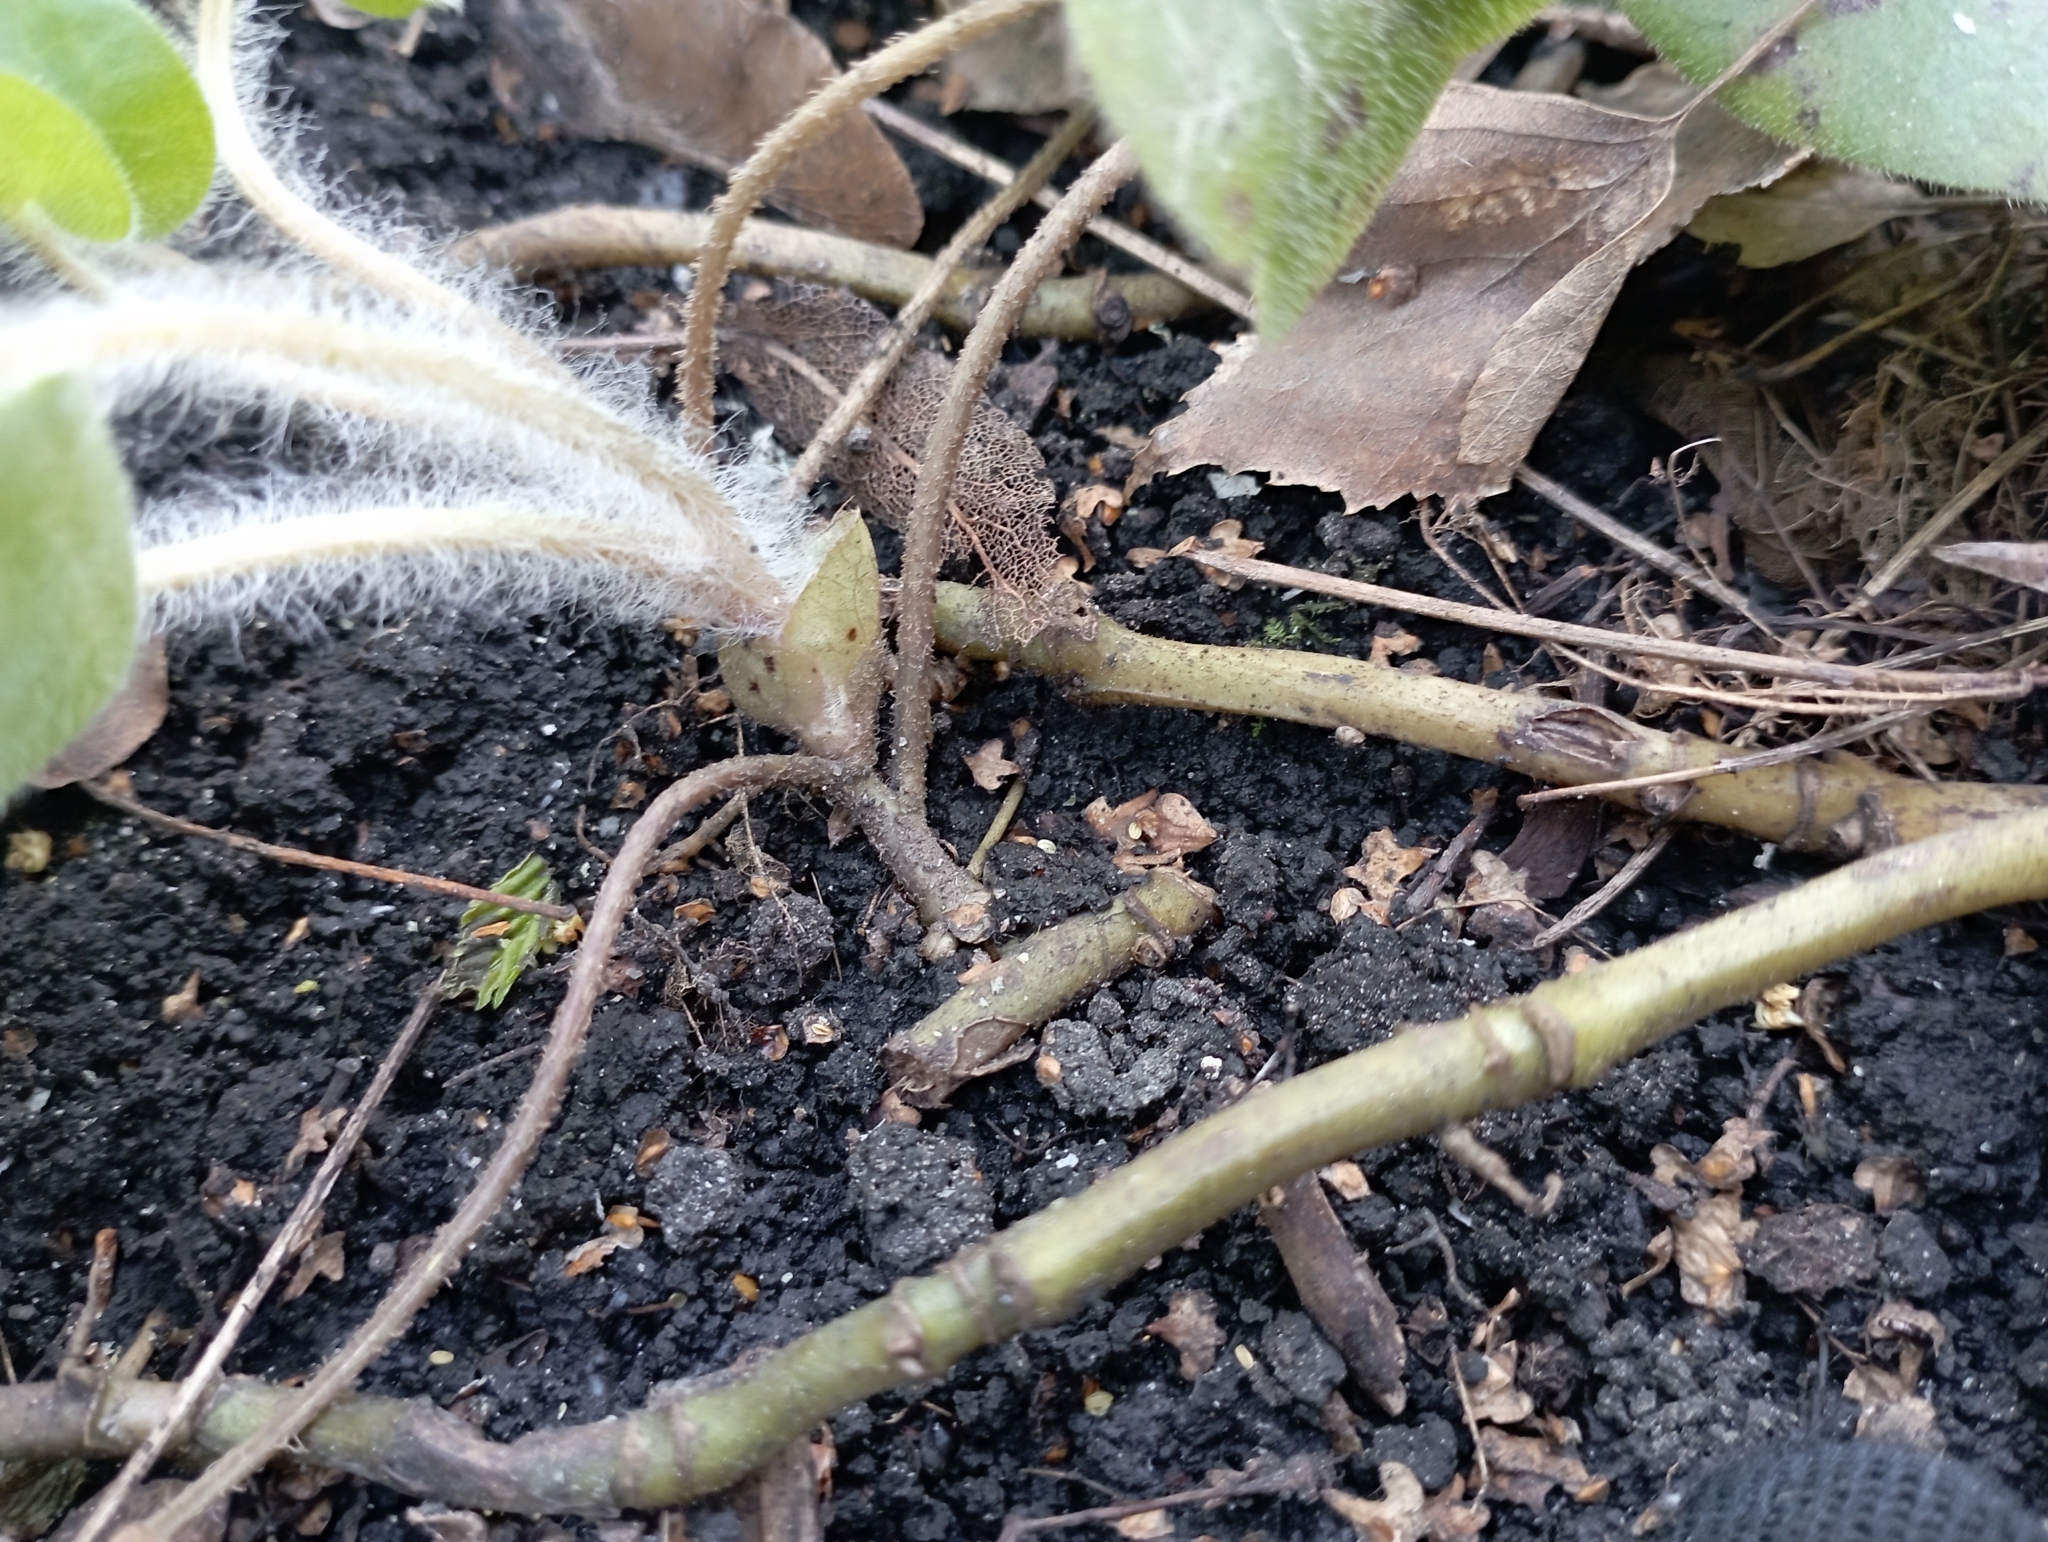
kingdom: Plantae
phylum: Tracheophyta
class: Magnoliopsida
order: Piperales
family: Aristolochiaceae
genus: Asarum
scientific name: Asarum europaeum
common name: Asarabacca
